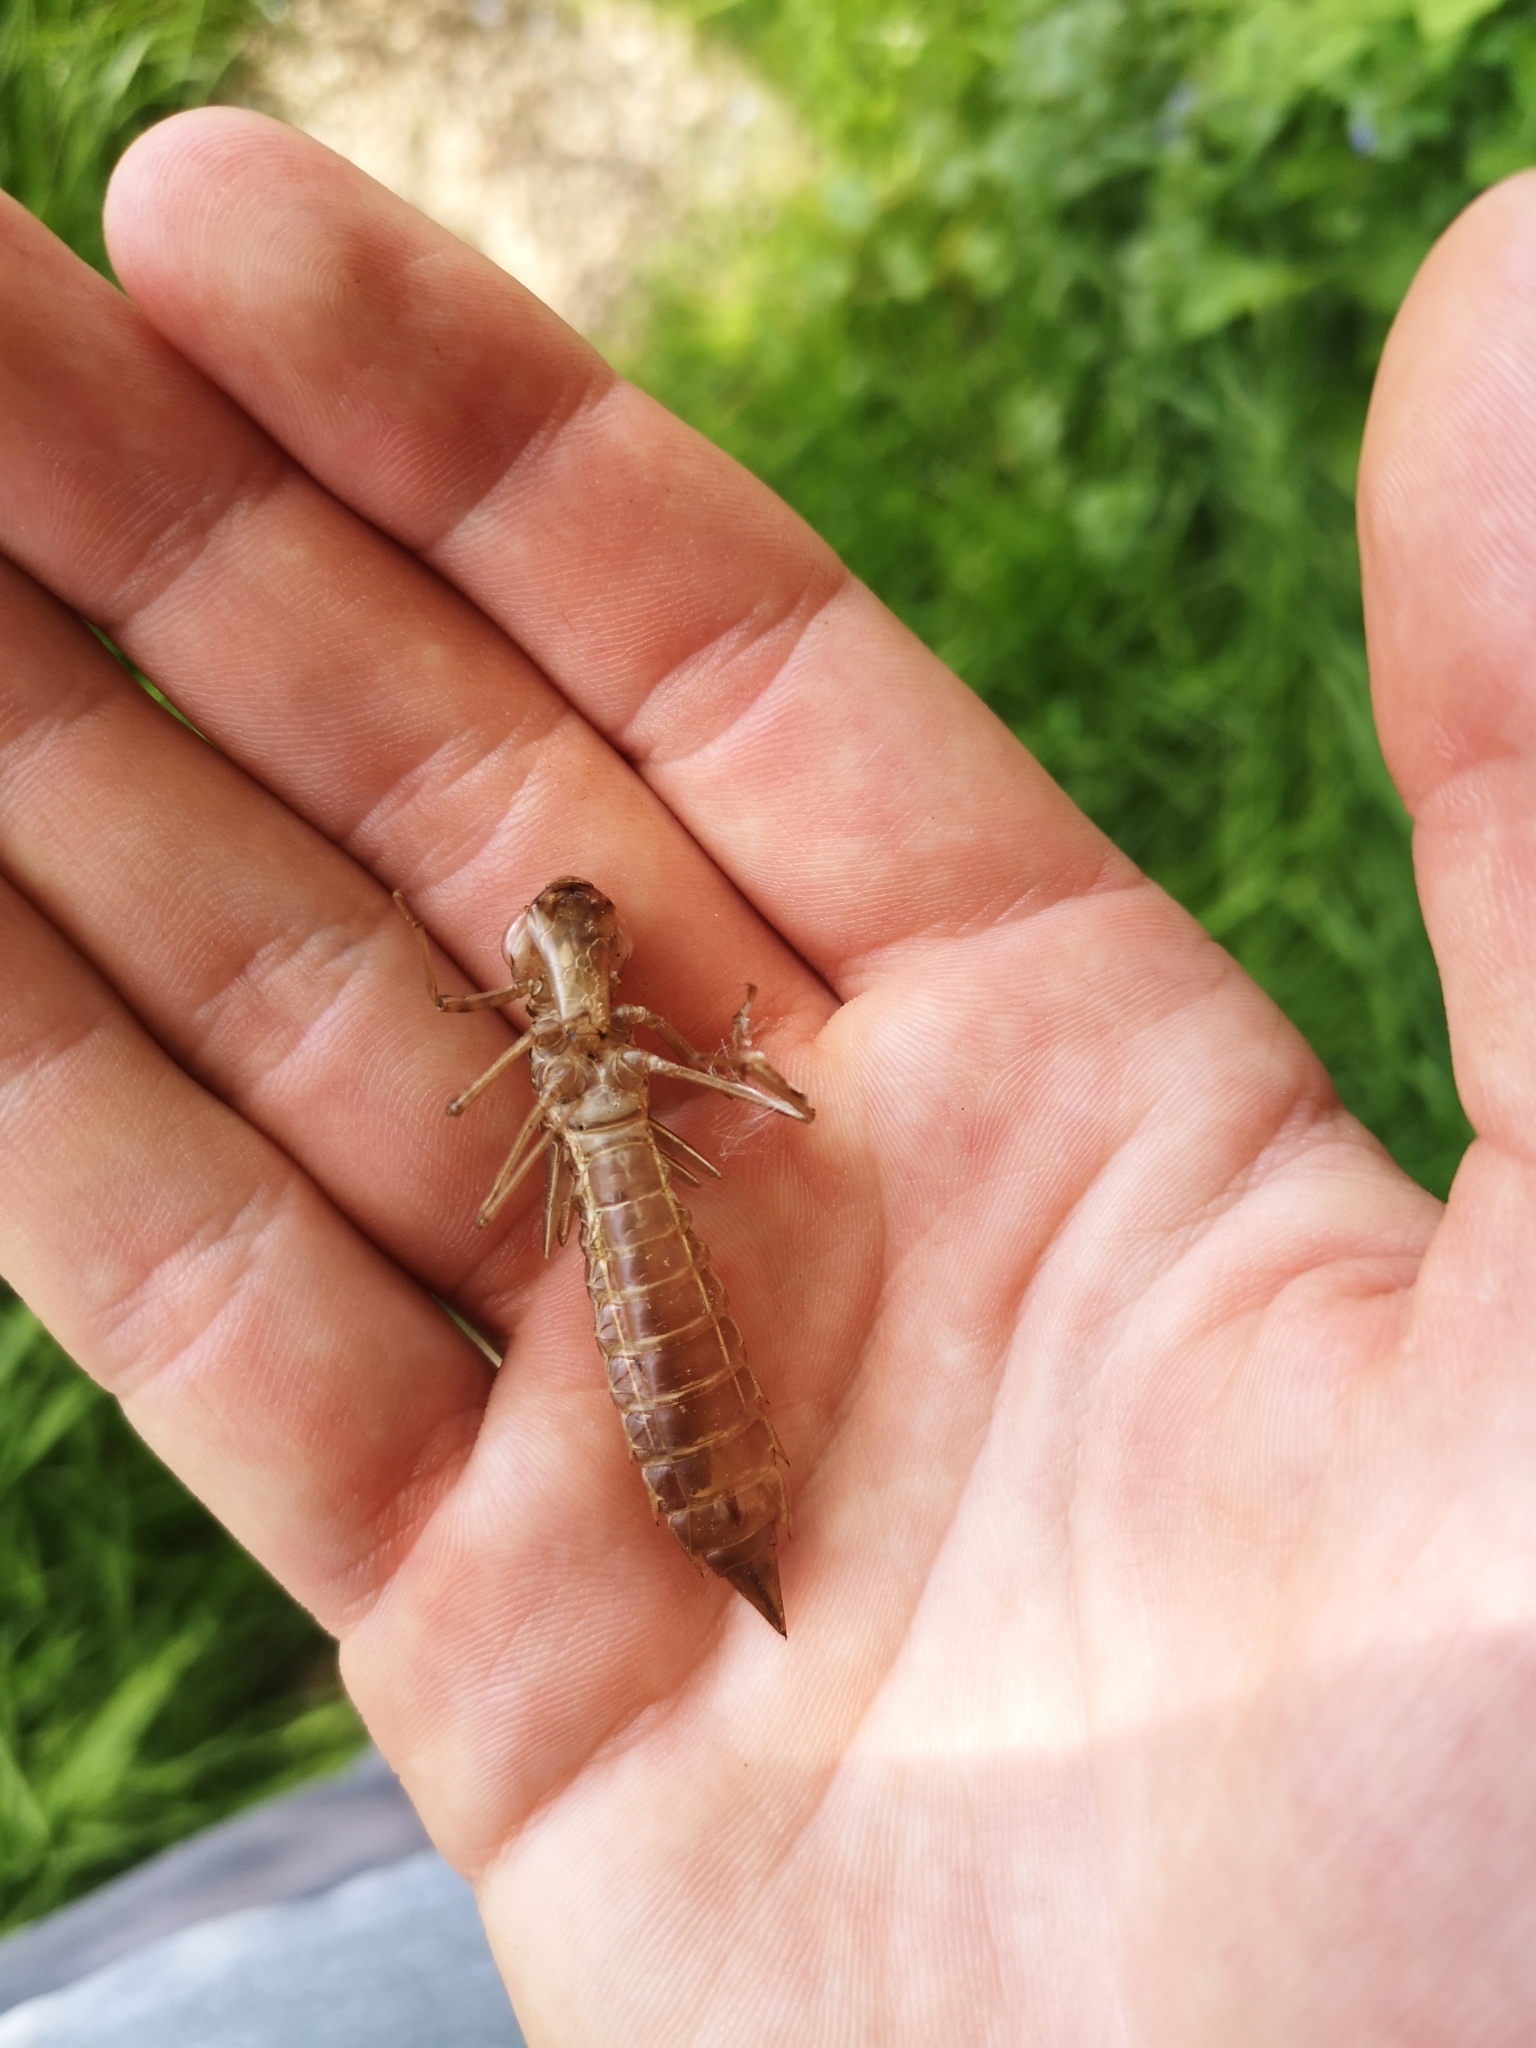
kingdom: Animalia
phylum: Arthropoda
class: Insecta
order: Odonata
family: Aeshnidae
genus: Anax
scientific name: Anax imperator
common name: Emperor dragonfly
